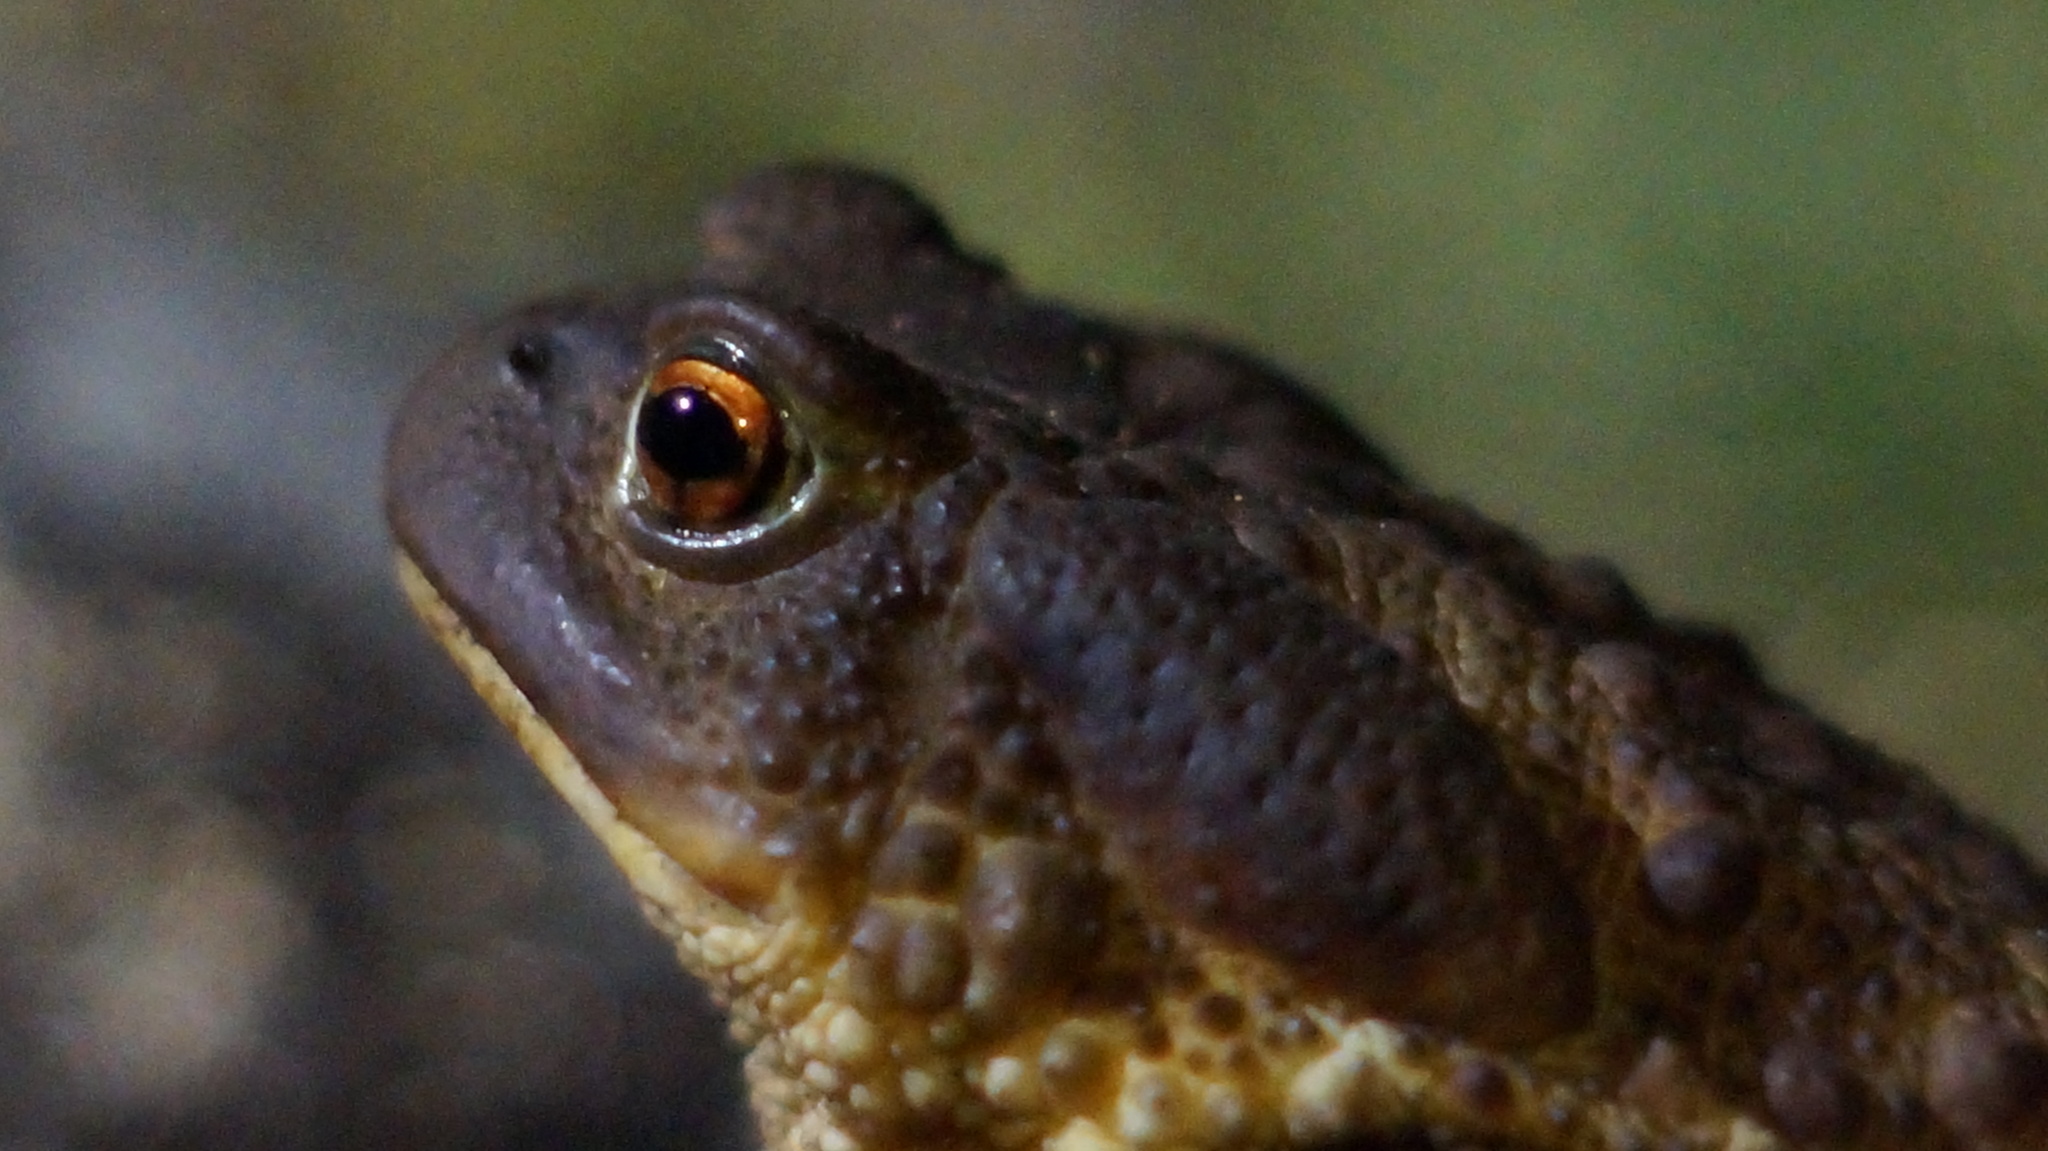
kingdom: Animalia
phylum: Chordata
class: Amphibia
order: Anura
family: Bufonidae
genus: Bufo
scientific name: Bufo bufo
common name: Common toad
